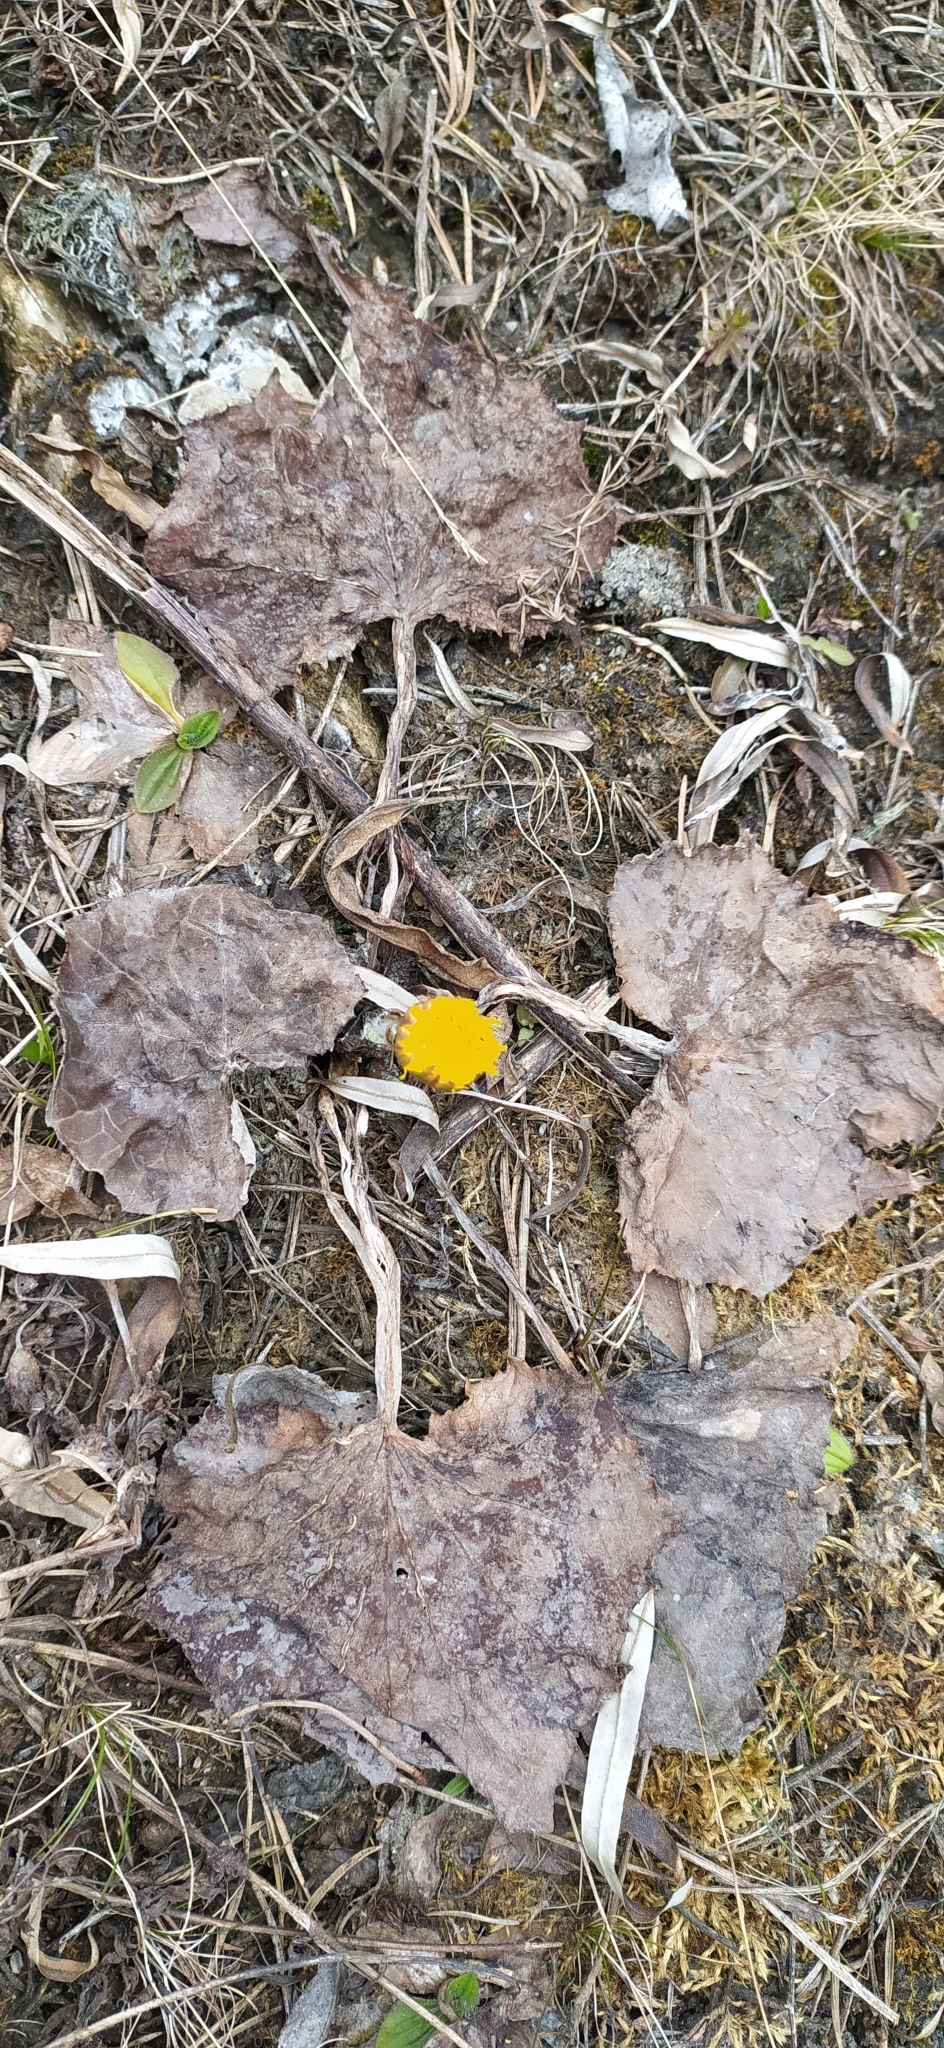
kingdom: Plantae
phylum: Tracheophyta
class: Magnoliopsida
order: Asterales
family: Asteraceae
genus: Tussilago
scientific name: Tussilago farfara
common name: Coltsfoot
